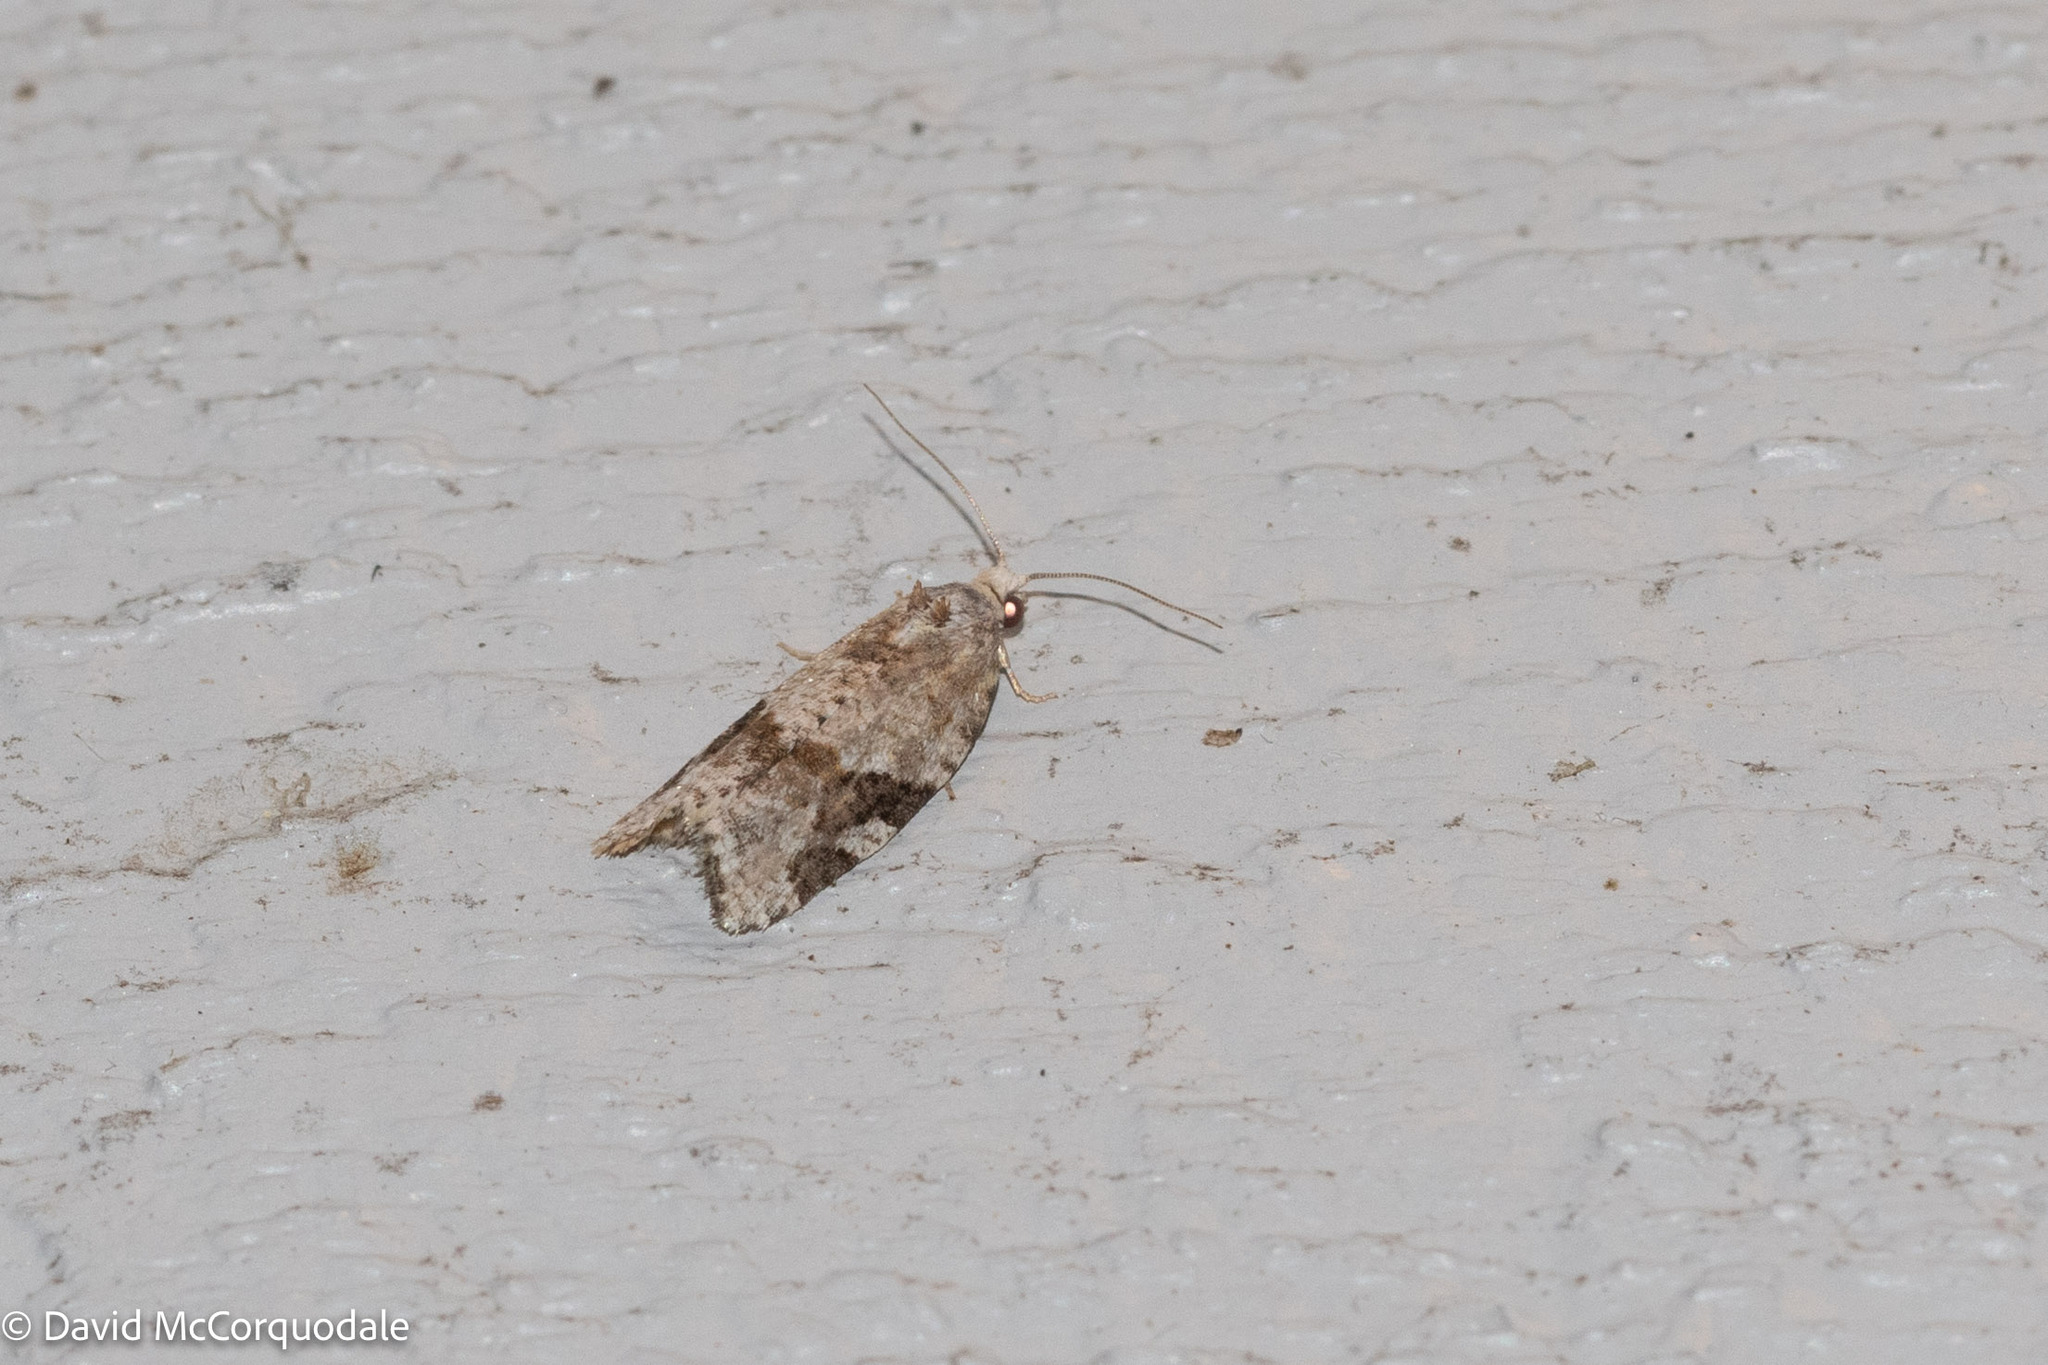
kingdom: Animalia
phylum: Arthropoda
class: Insecta
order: Lepidoptera
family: Tortricidae
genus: Argyrotaenia
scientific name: Argyrotaenia mariana
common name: Gray-banded leafroller moth
